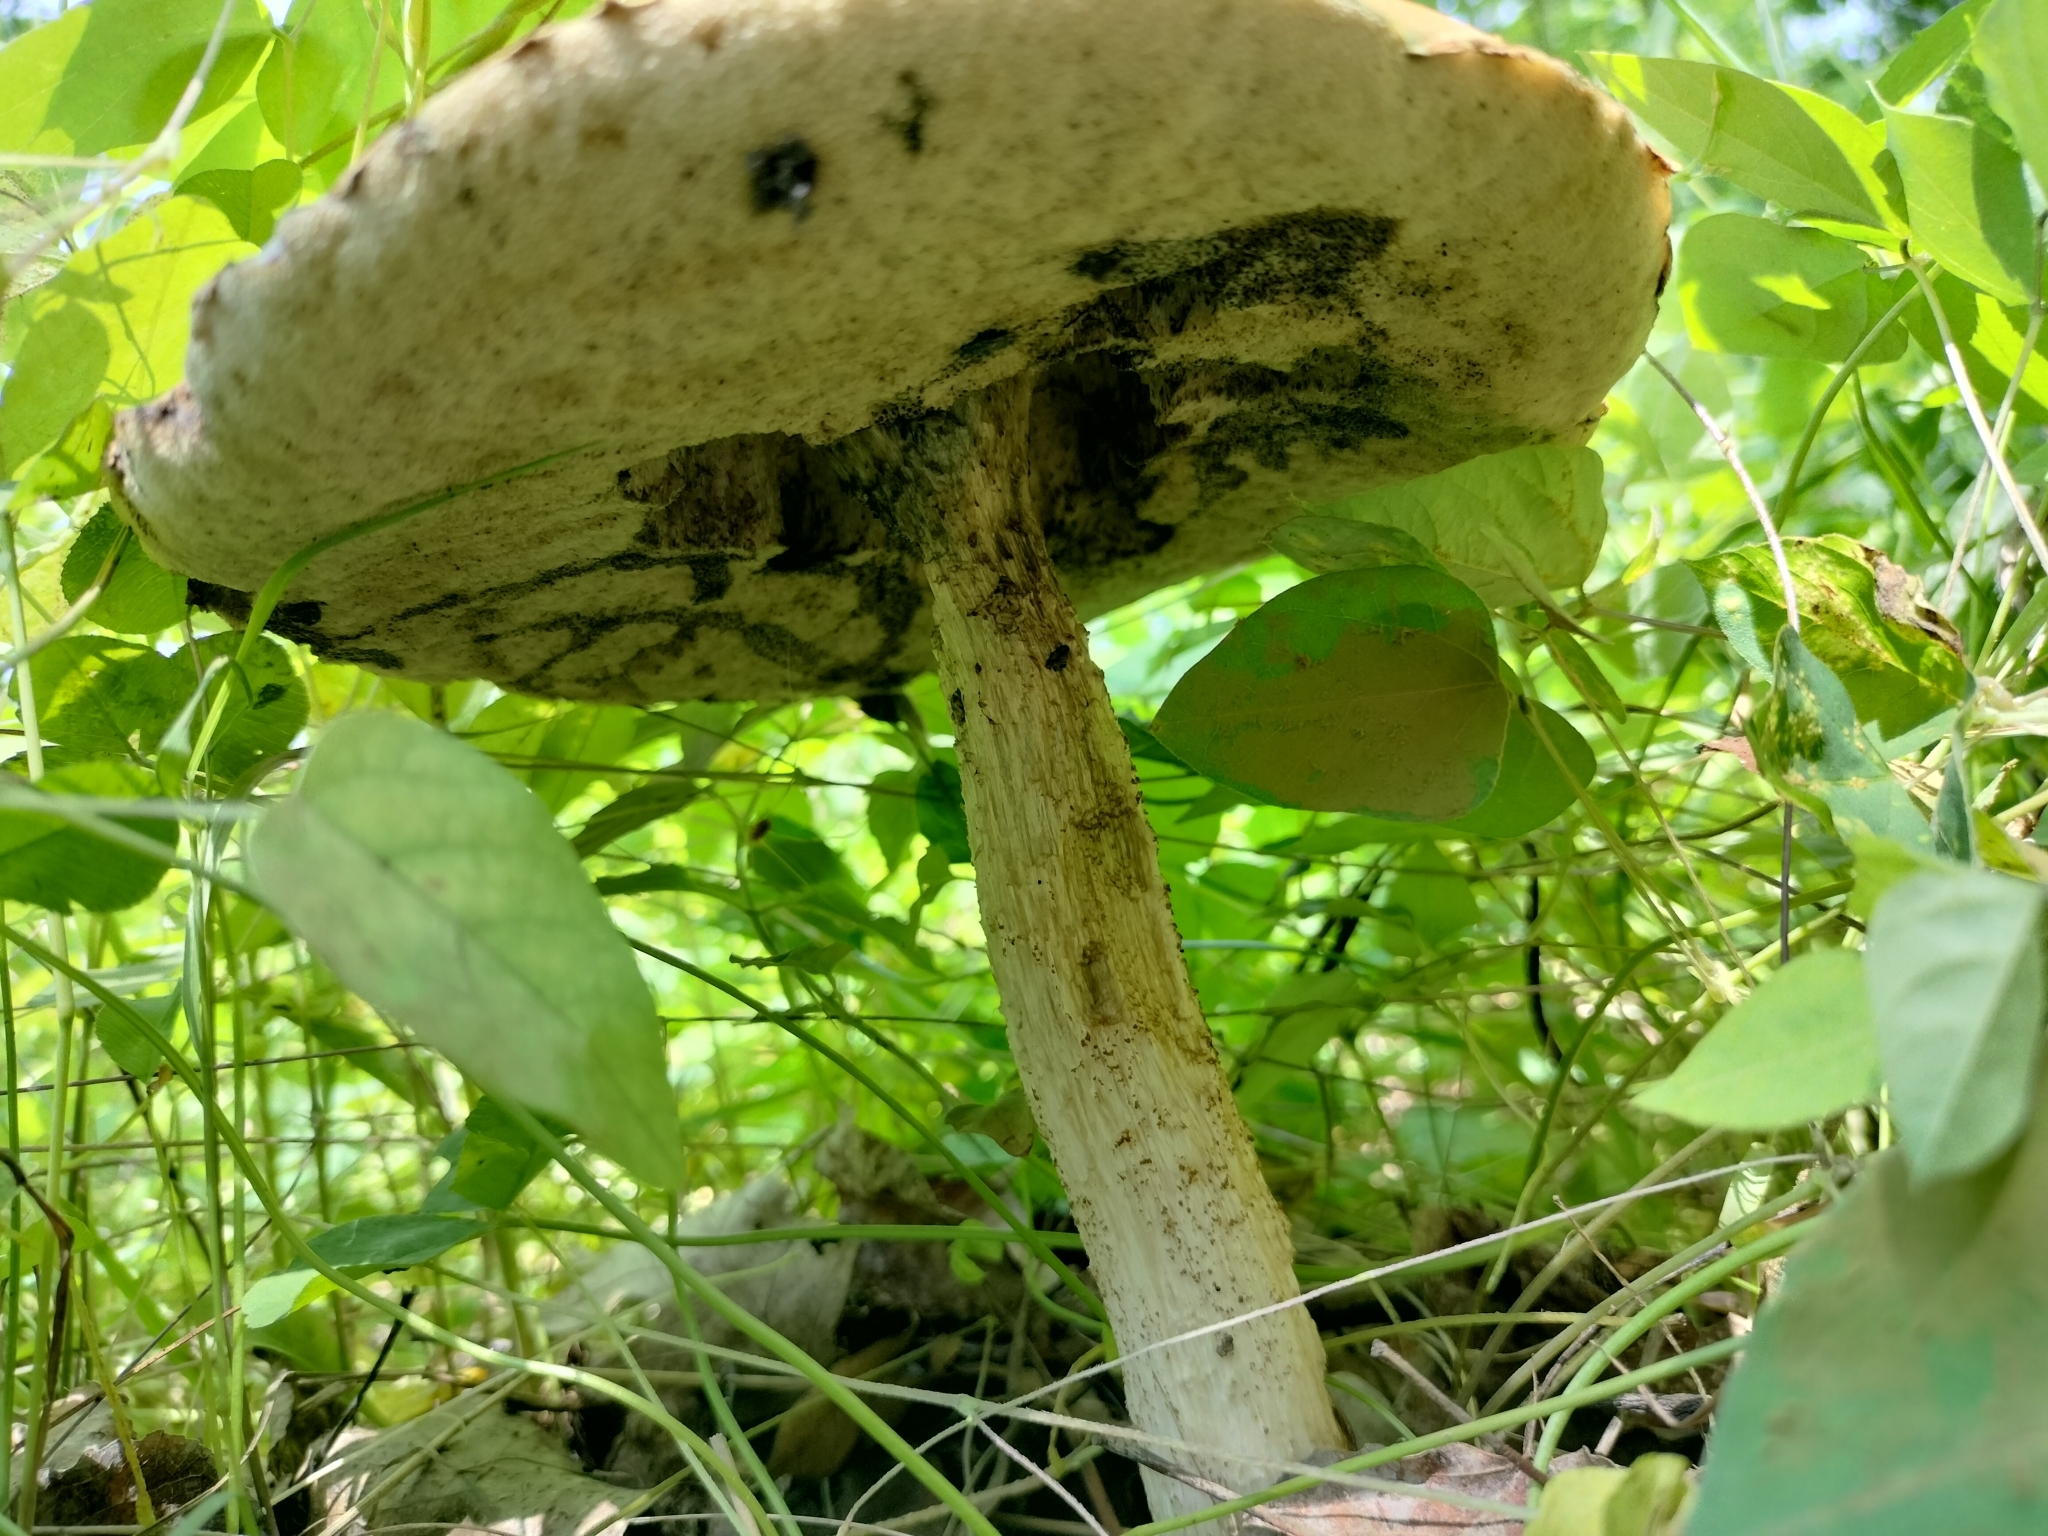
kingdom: Fungi
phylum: Basidiomycota
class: Agaricomycetes
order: Boletales
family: Boletaceae
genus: Leccinum
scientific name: Leccinum insigne
